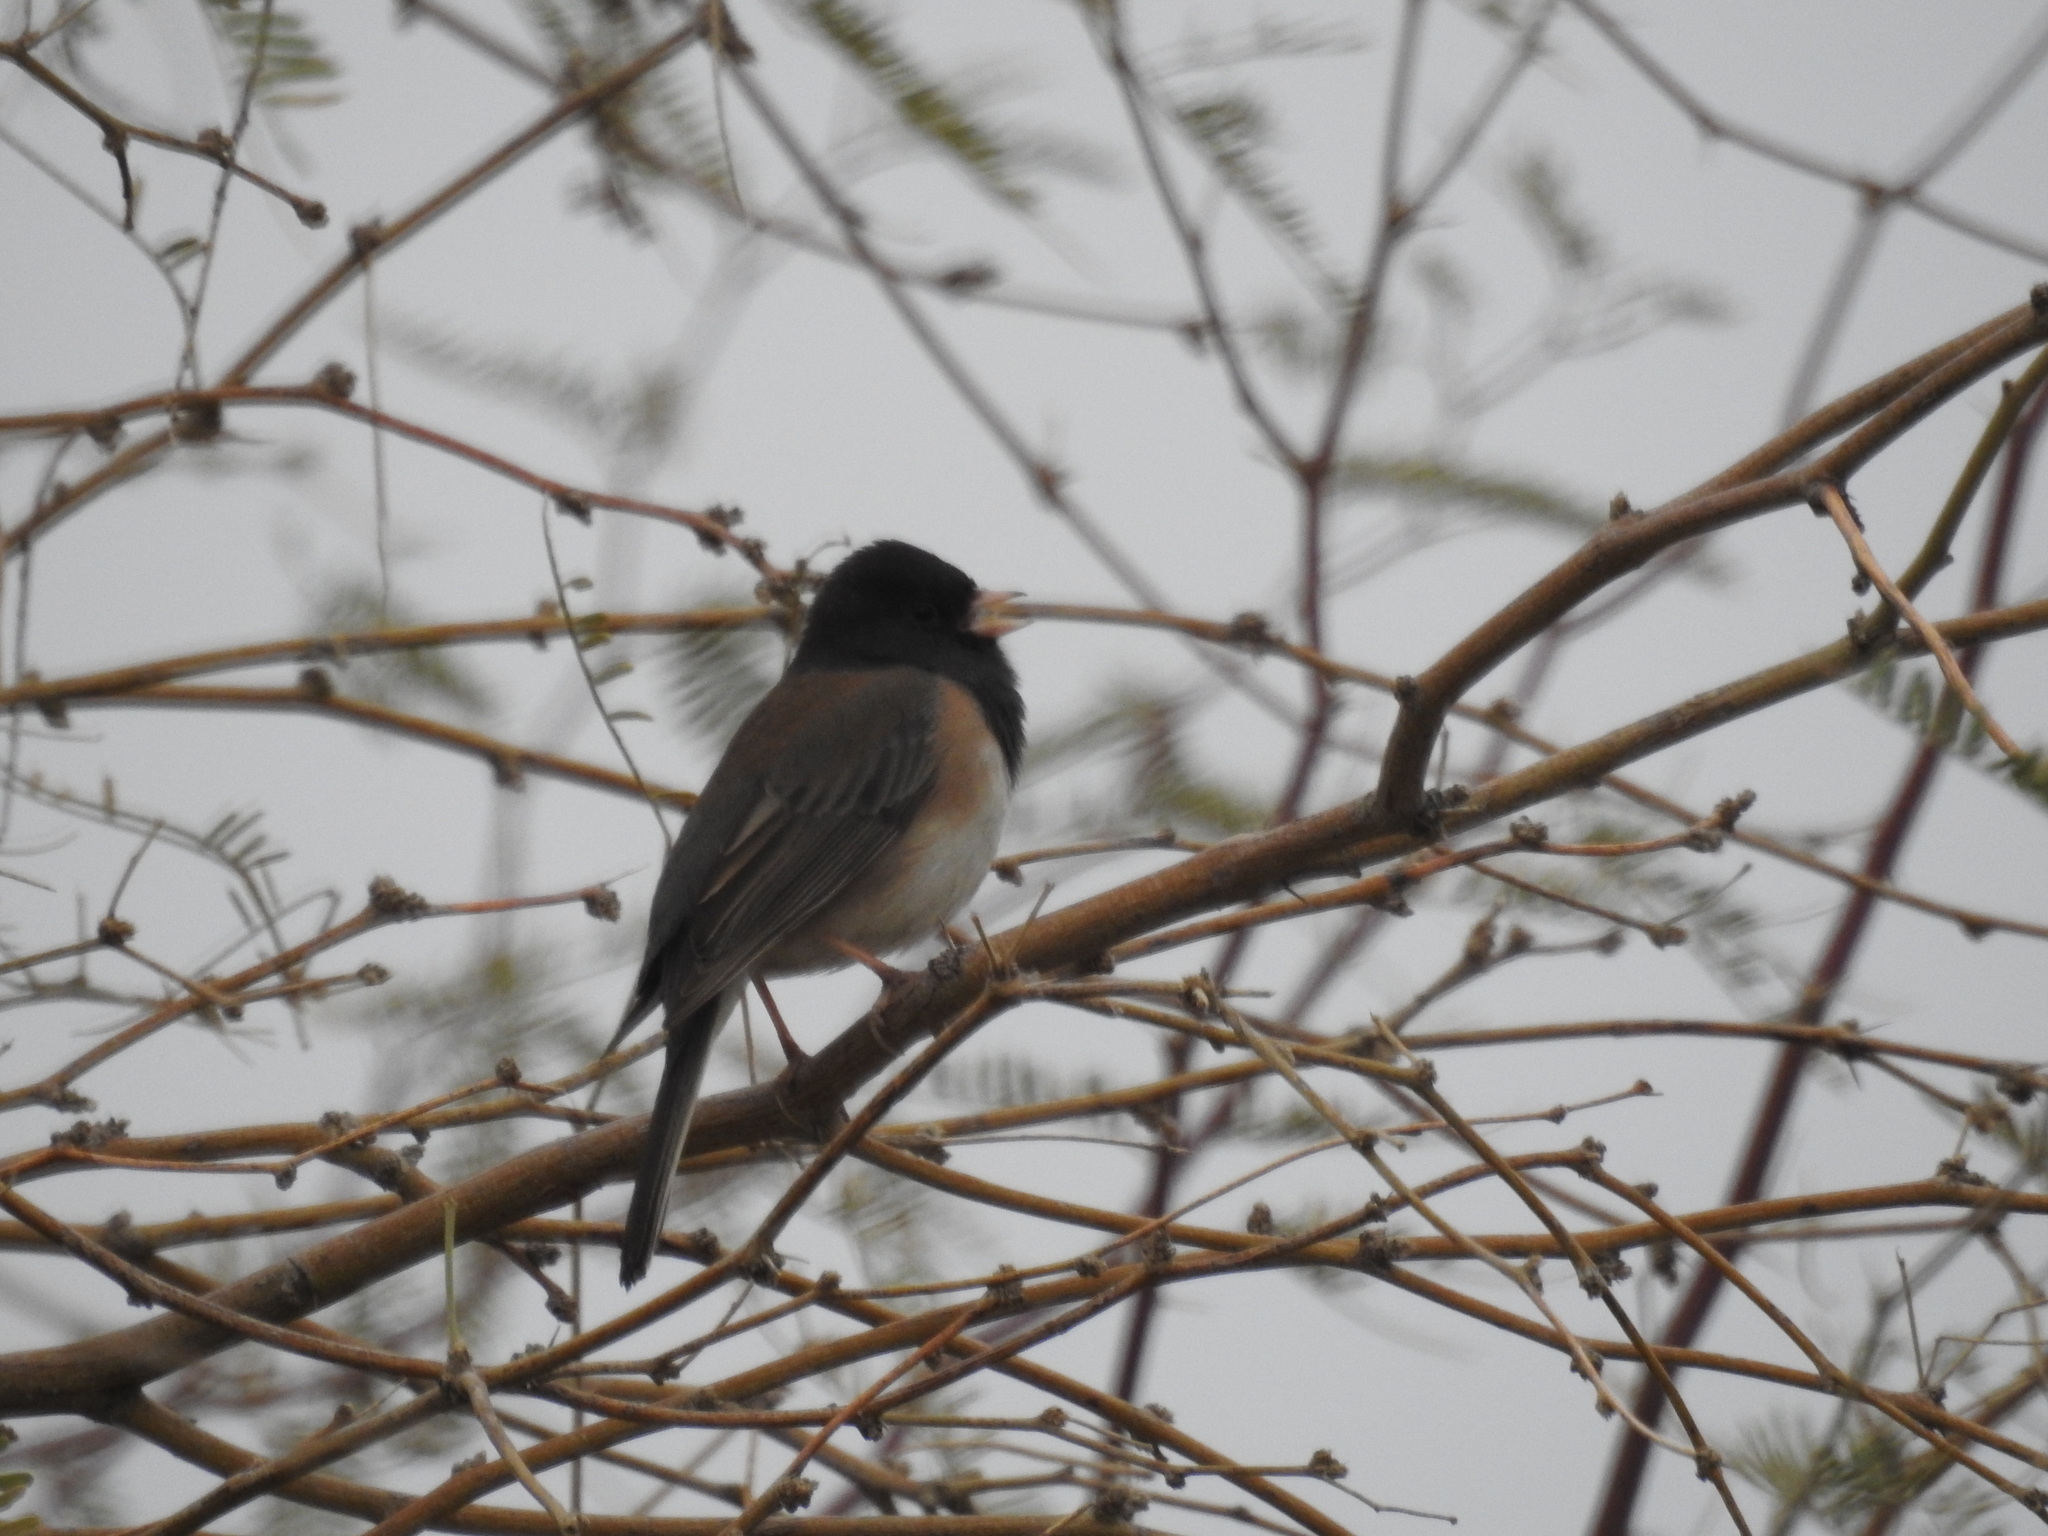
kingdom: Animalia
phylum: Chordata
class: Aves
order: Passeriformes
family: Passerellidae
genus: Junco
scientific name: Junco hyemalis
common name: Dark-eyed junco
